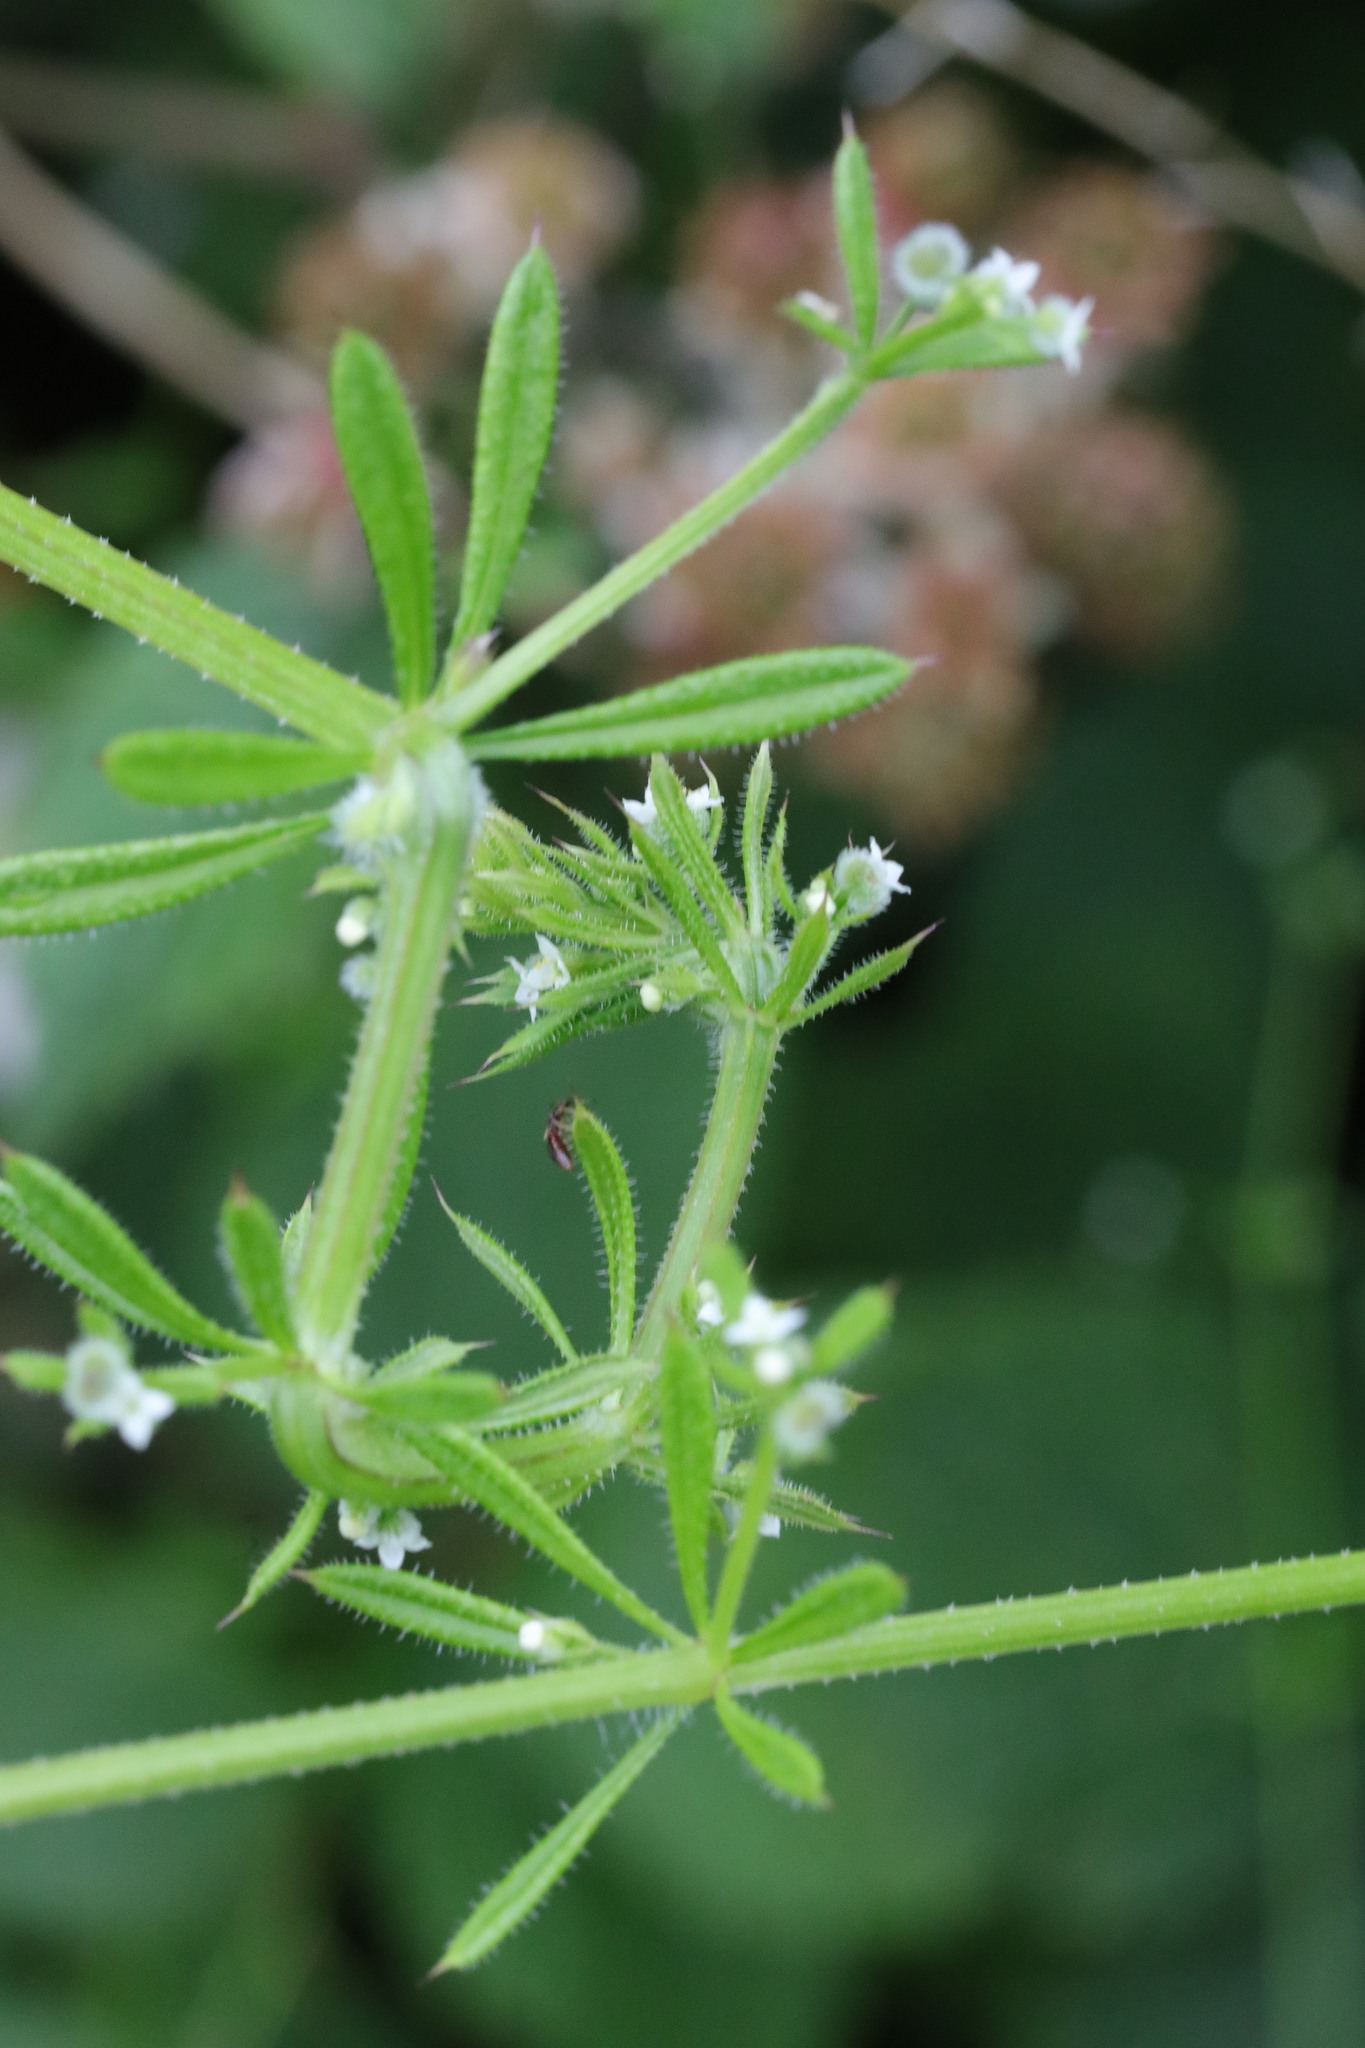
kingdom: Plantae
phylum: Tracheophyta
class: Magnoliopsida
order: Gentianales
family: Rubiaceae
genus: Galium
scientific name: Galium aparine
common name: Cleavers
